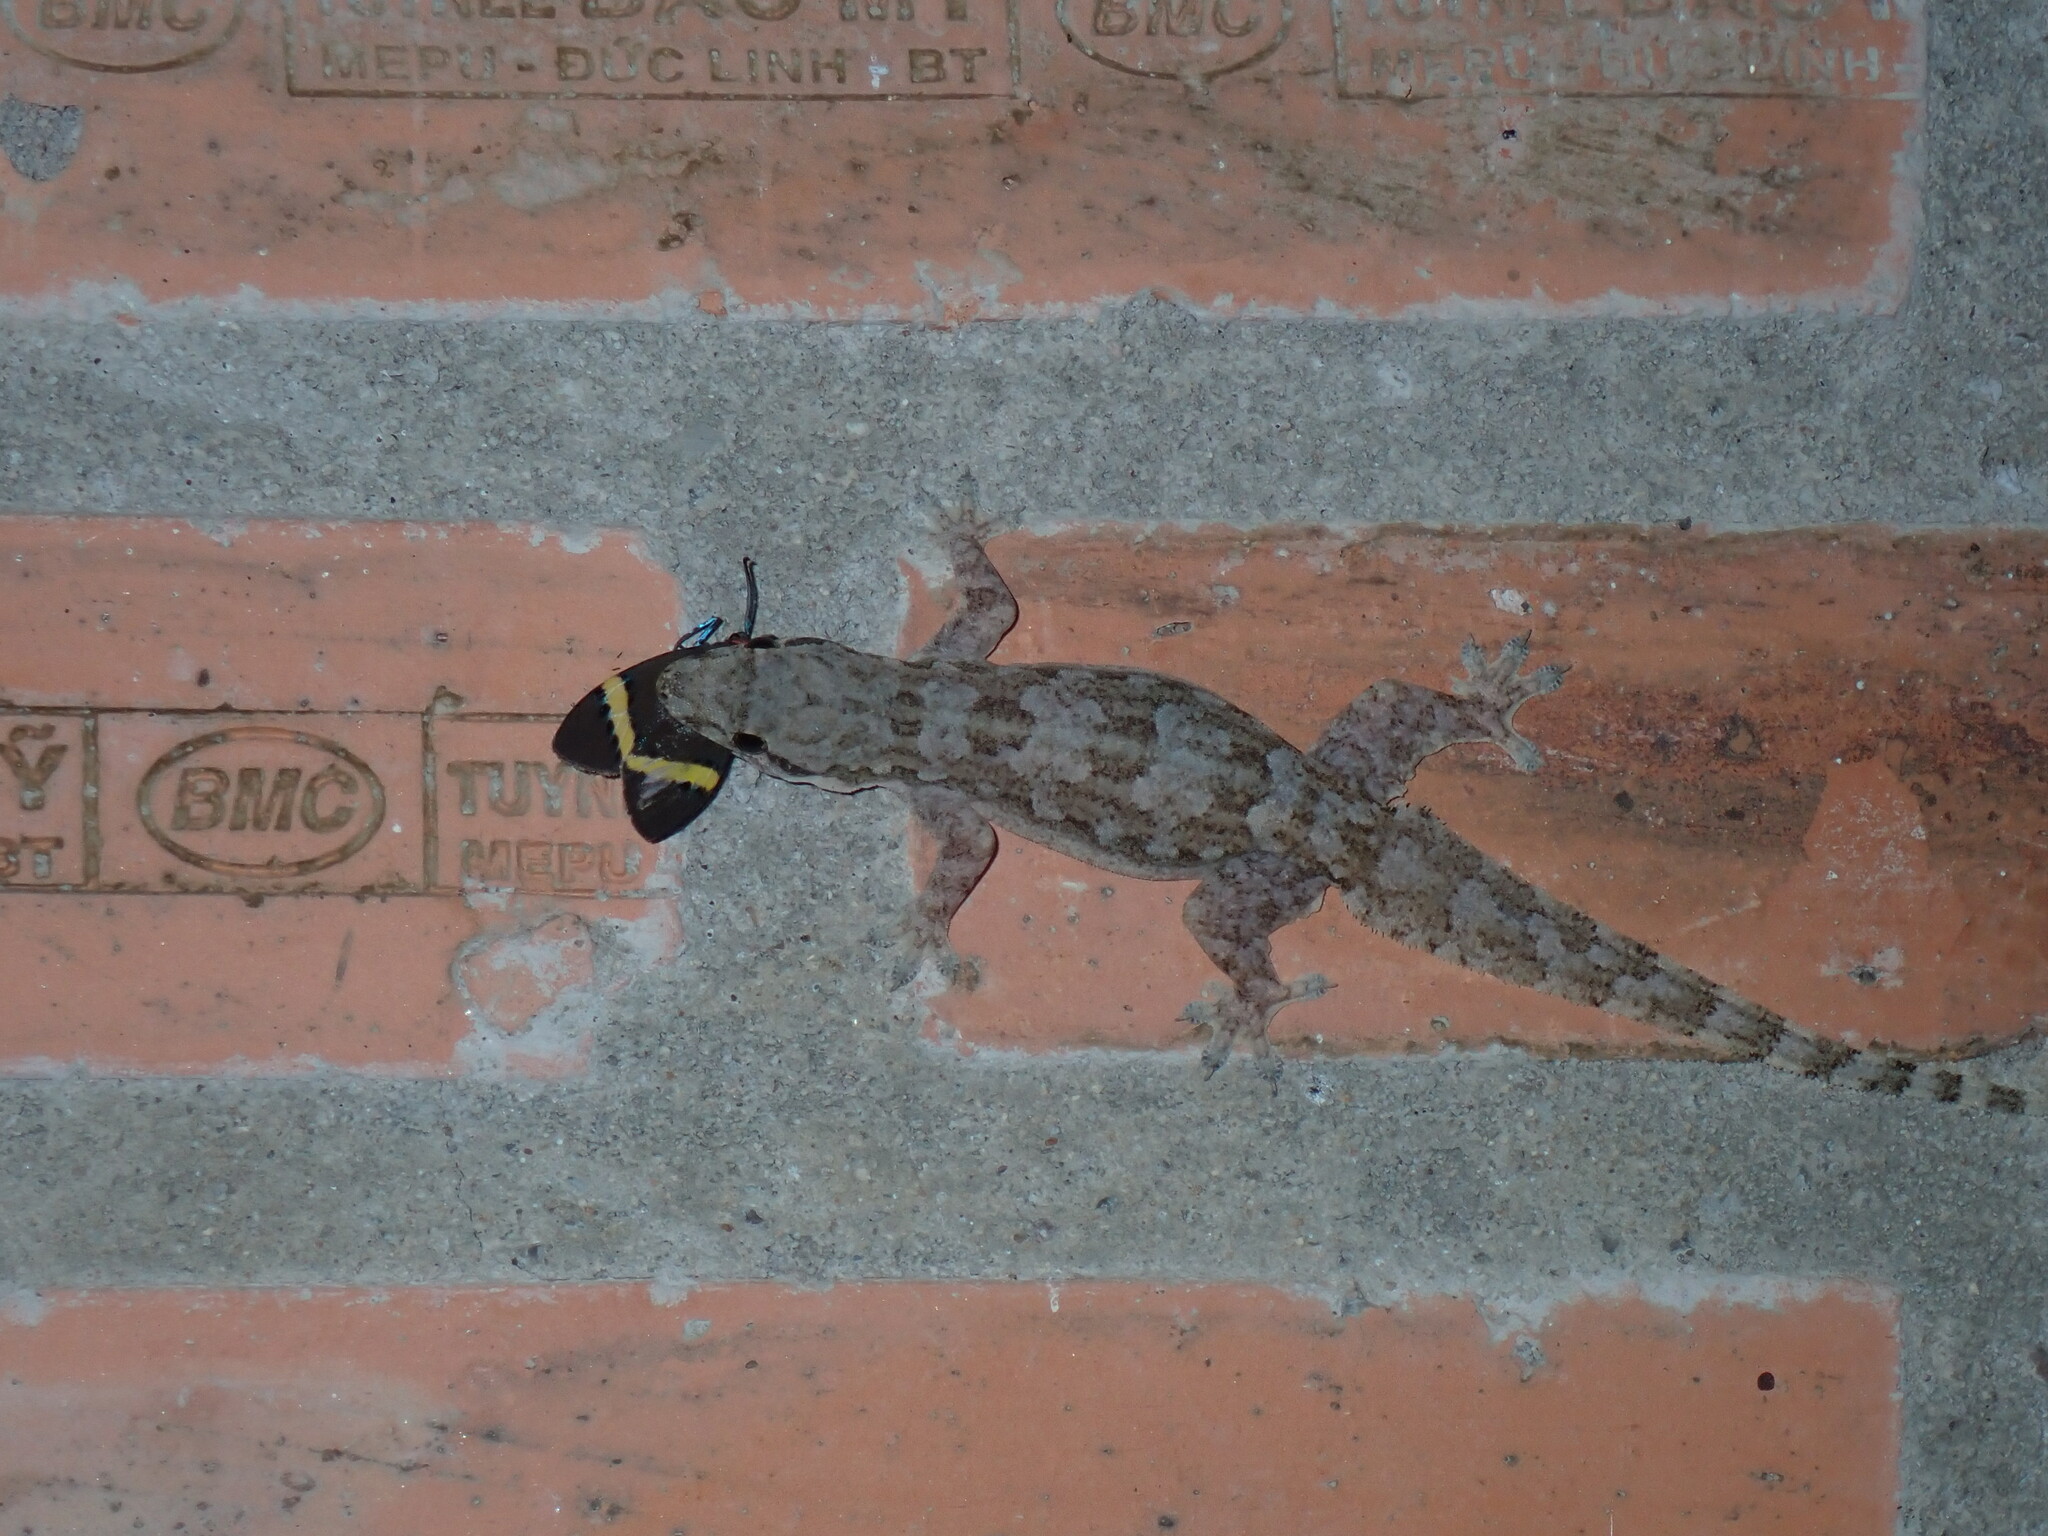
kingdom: Animalia
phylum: Chordata
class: Squamata
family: Gekkonidae
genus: Hemidactylus
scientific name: Hemidactylus platyurus
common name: Flat-tailed house gecko
